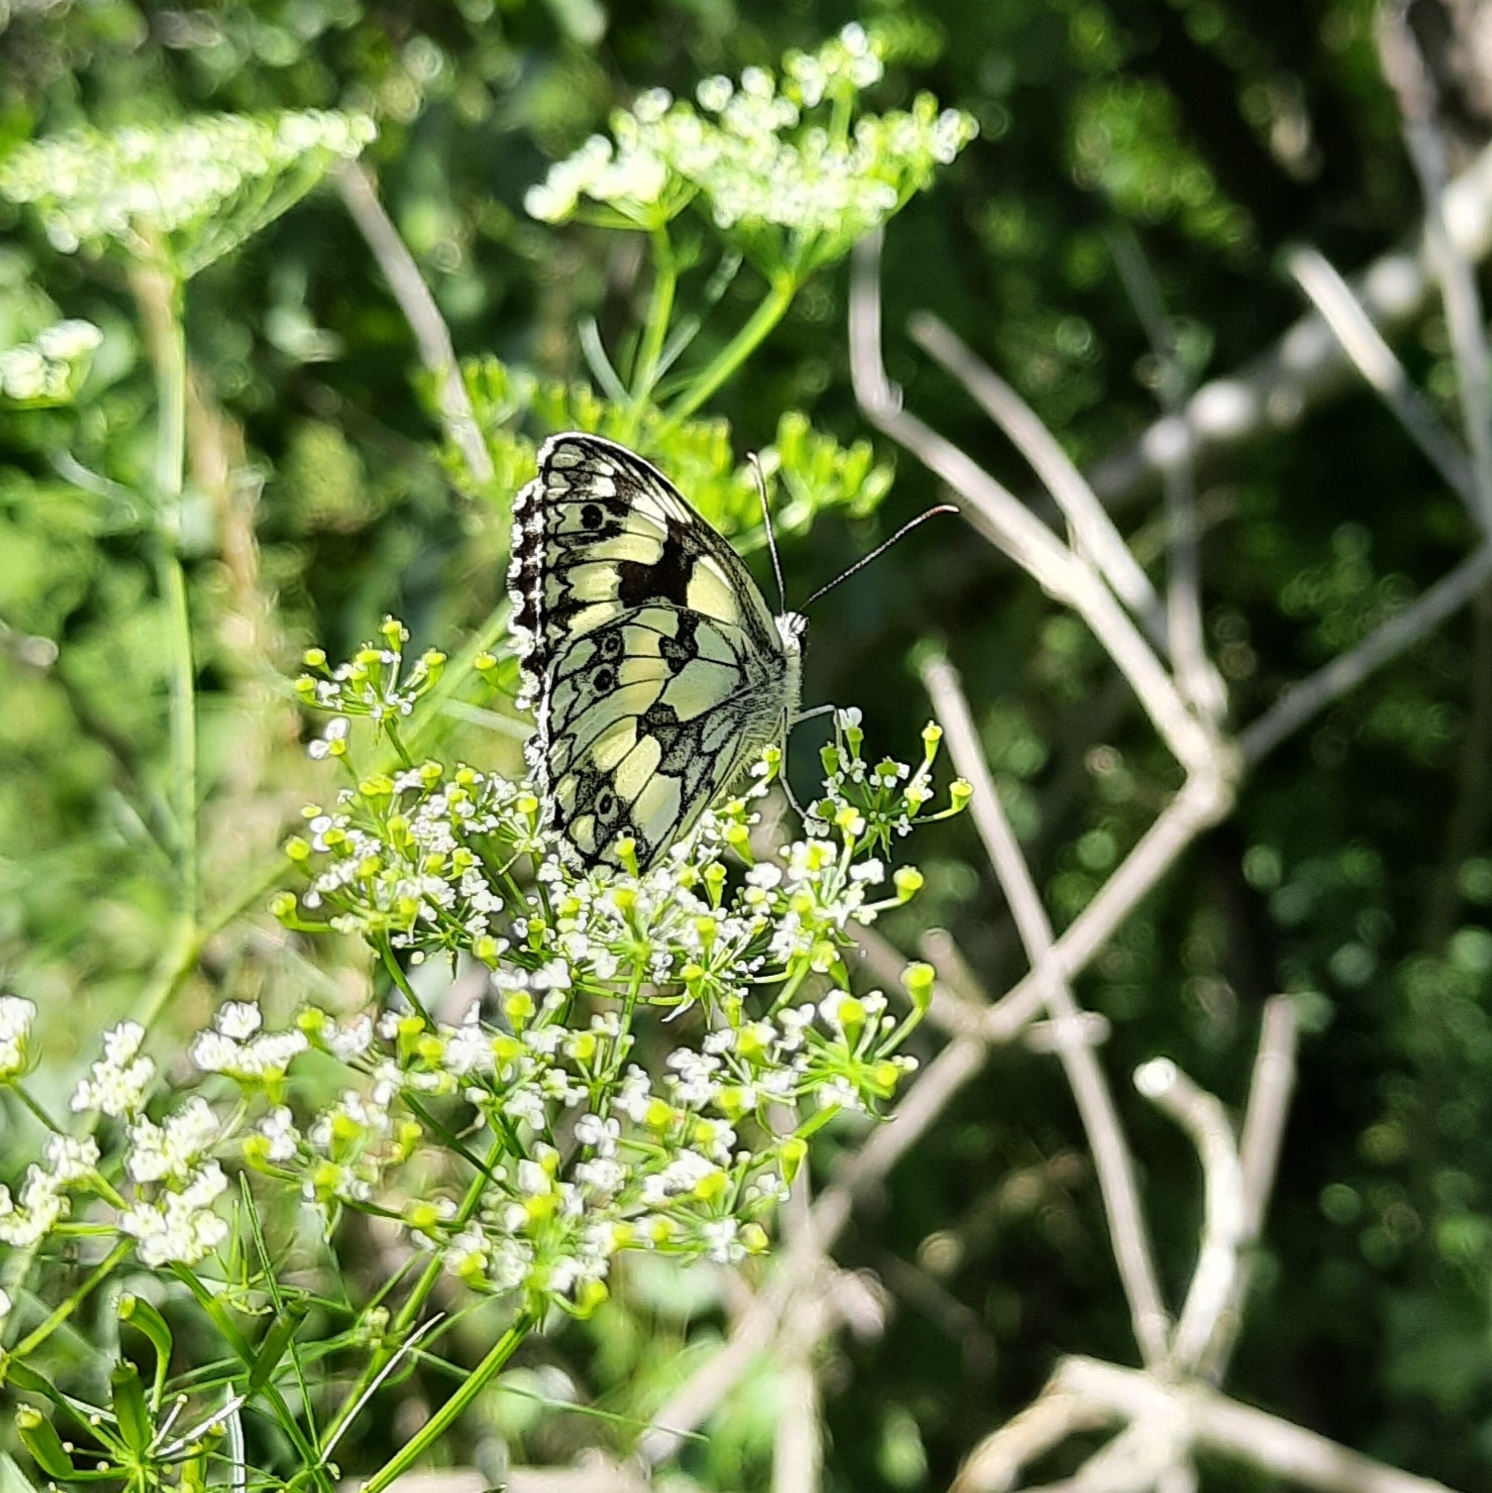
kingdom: Animalia
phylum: Arthropoda
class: Insecta
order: Lepidoptera
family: Nymphalidae
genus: Melanargia
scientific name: Melanargia galathea
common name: Marbled white
